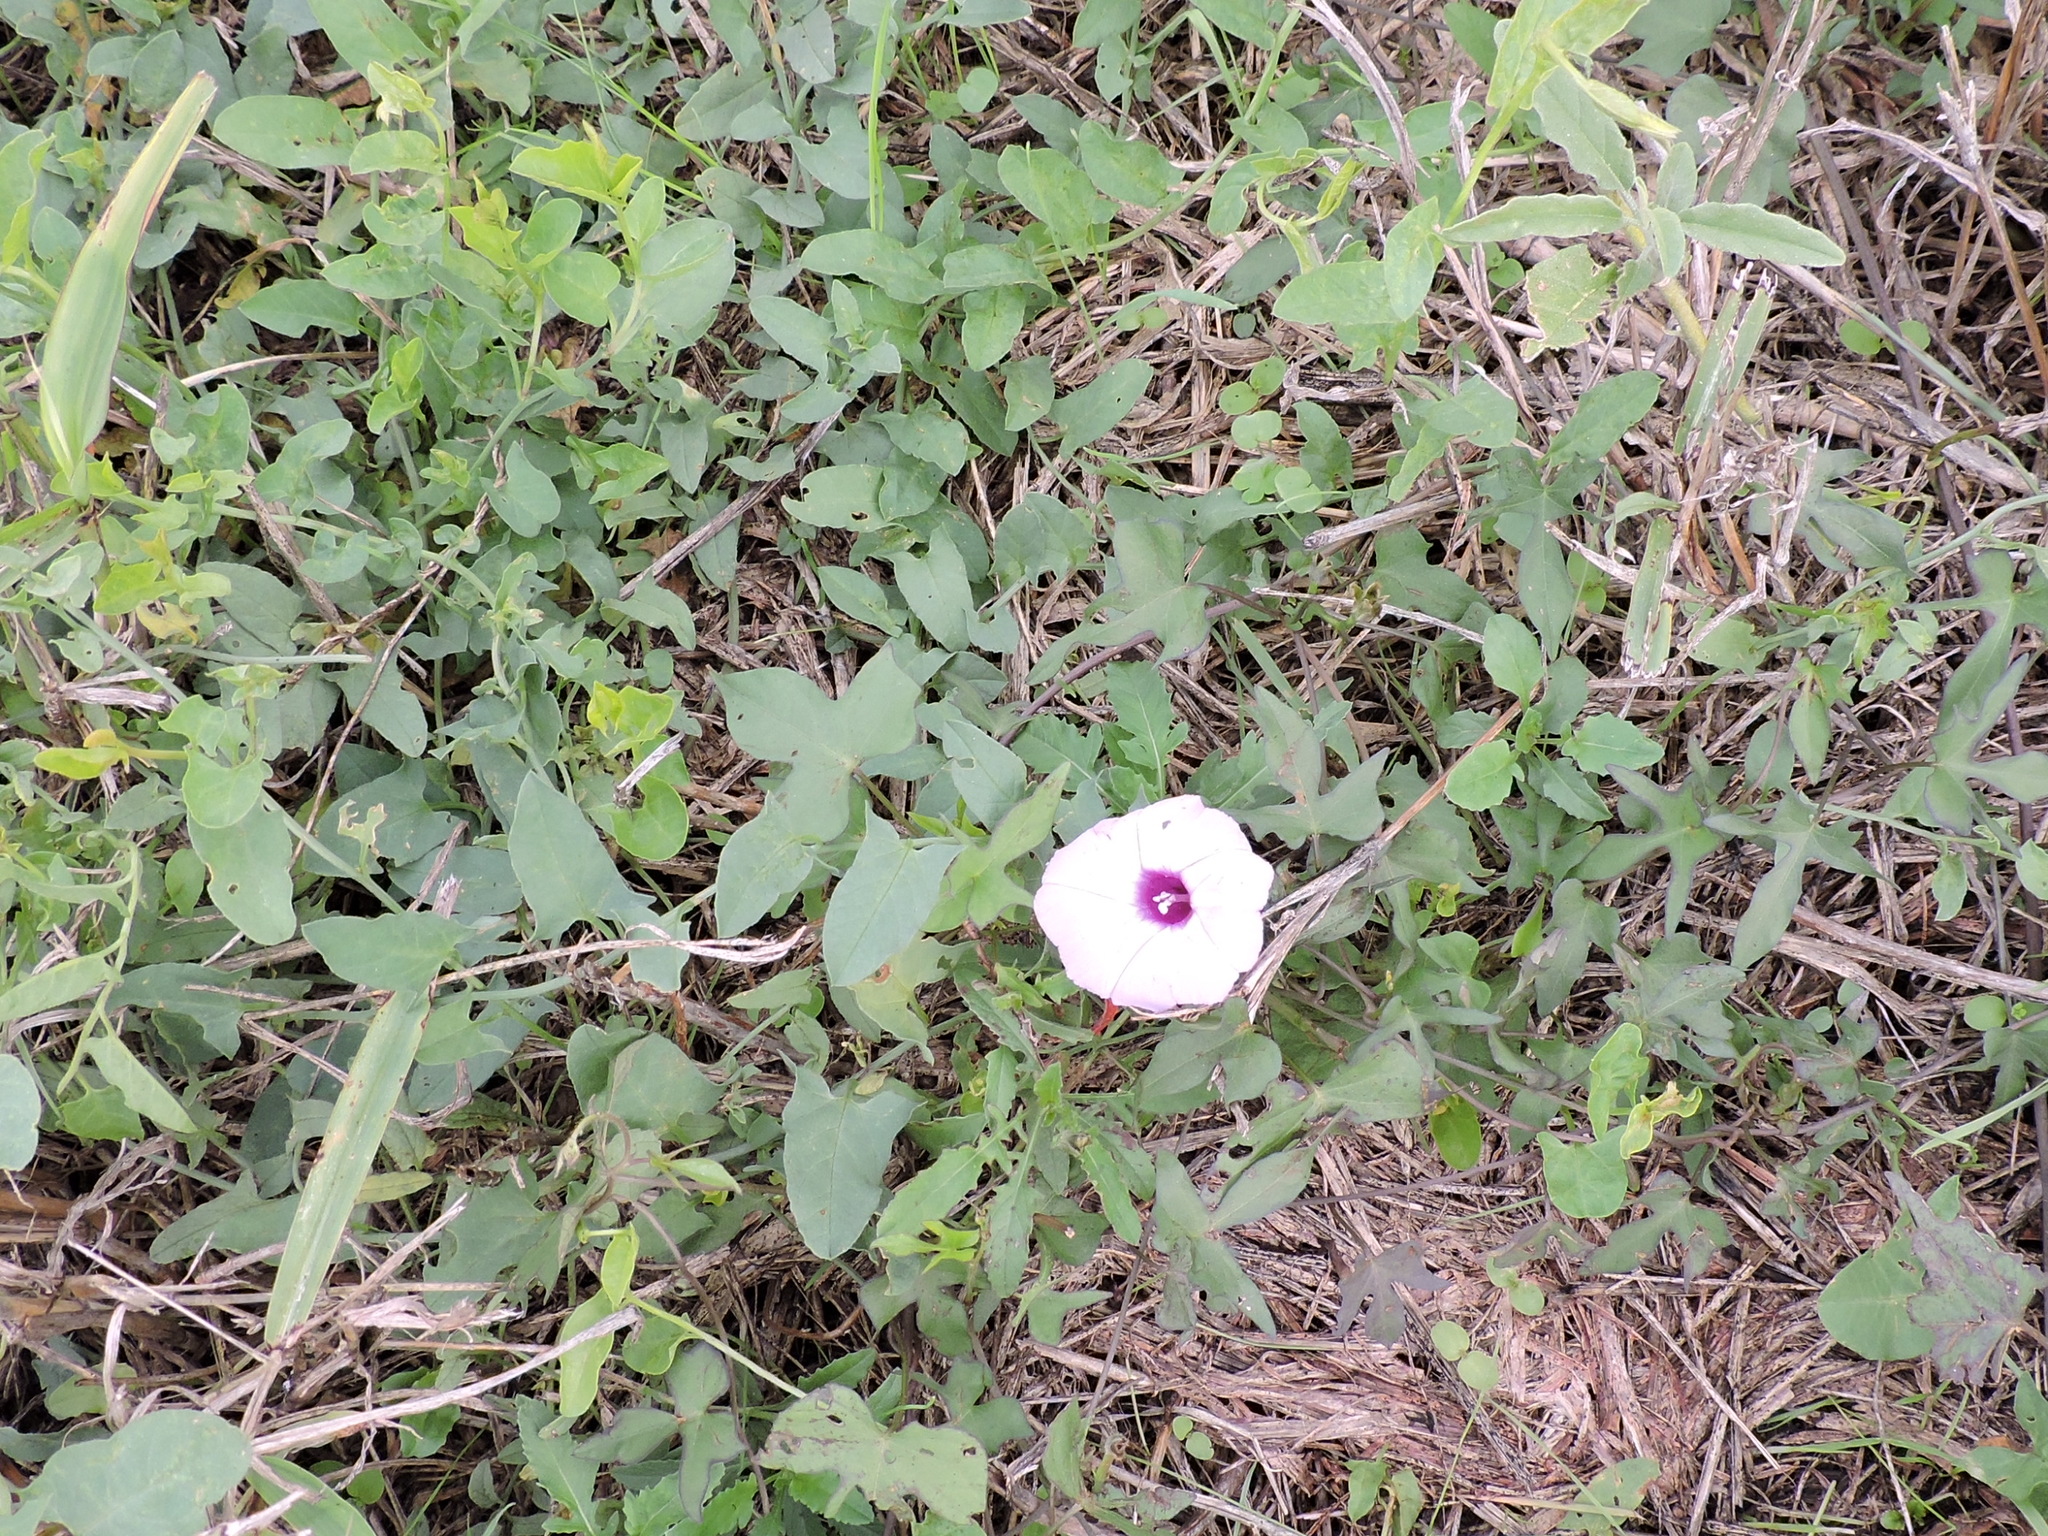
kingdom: Plantae
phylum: Tracheophyta
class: Magnoliopsida
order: Solanales
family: Convolvulaceae
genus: Ipomoea
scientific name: Ipomoea cordatotriloba
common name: Cotton morning glory
